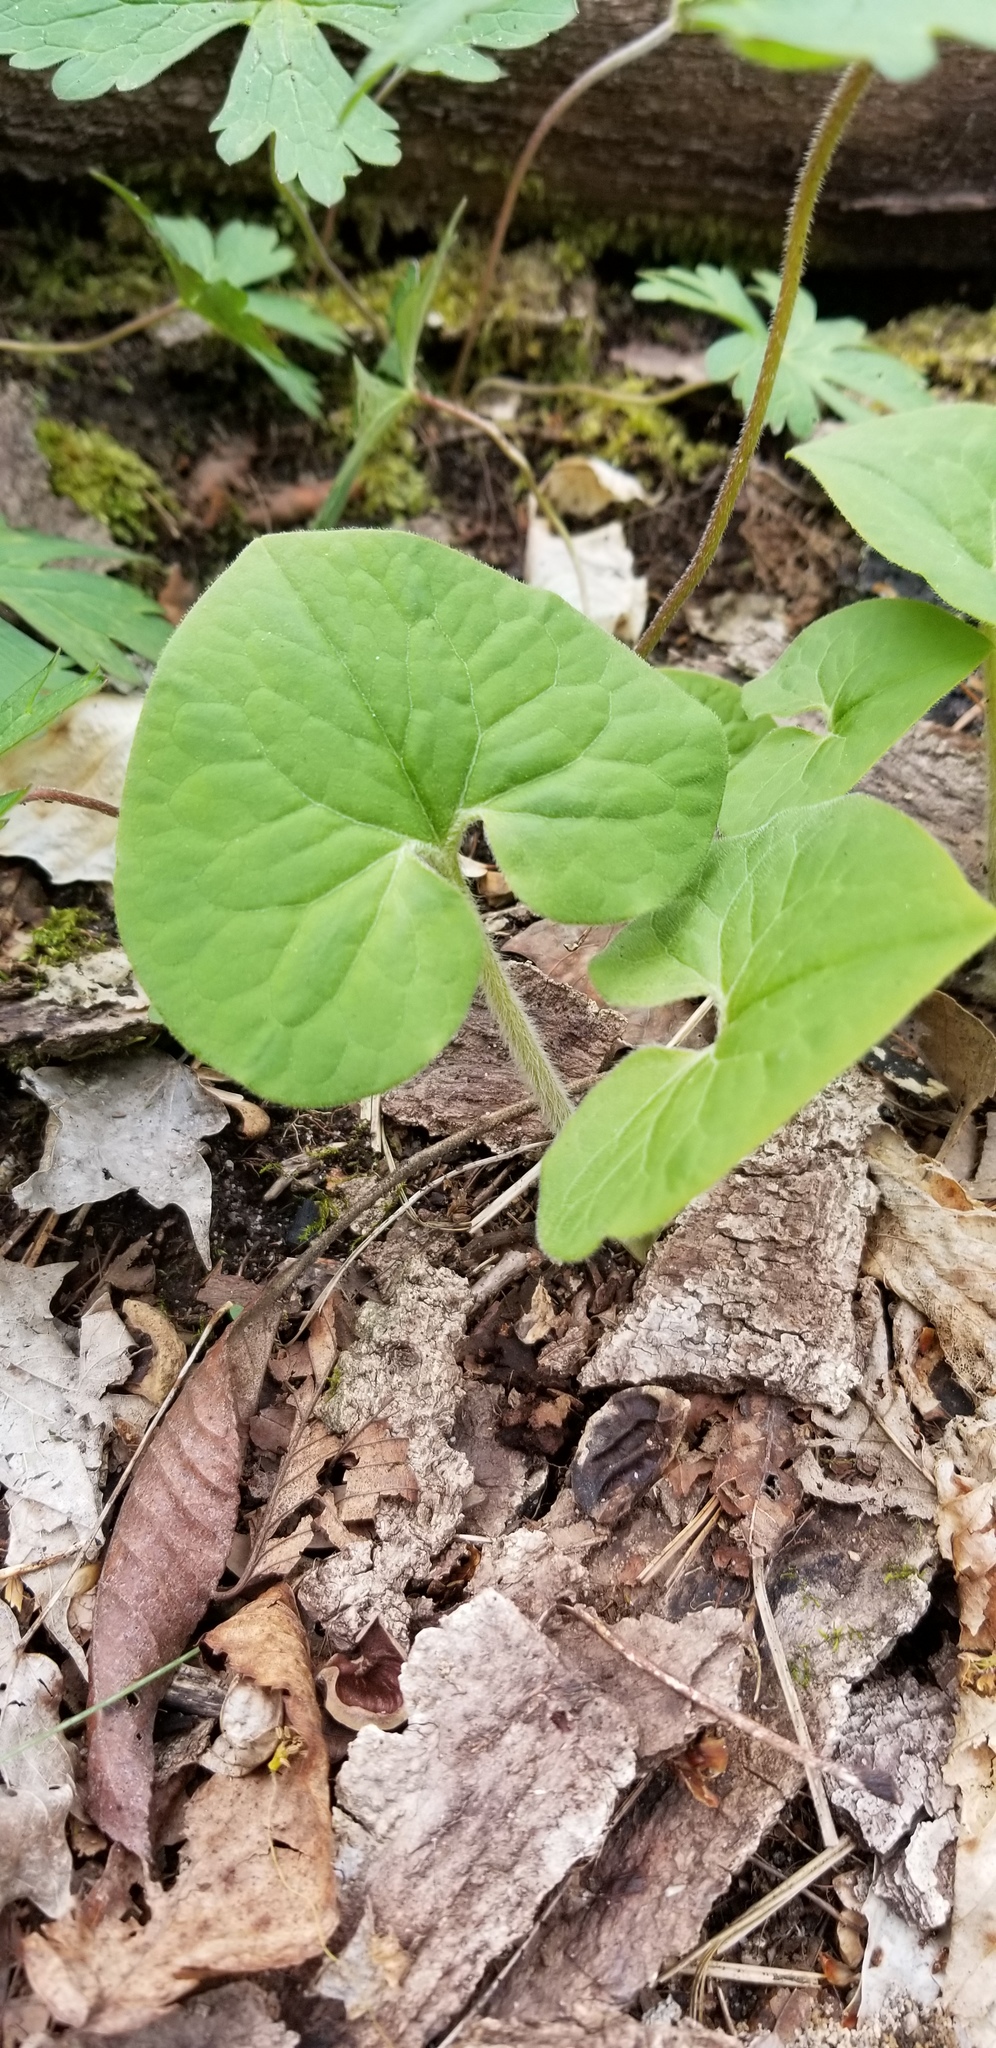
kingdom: Plantae
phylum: Tracheophyta
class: Magnoliopsida
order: Piperales
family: Aristolochiaceae
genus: Asarum
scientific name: Asarum canadense
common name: Wild ginger
